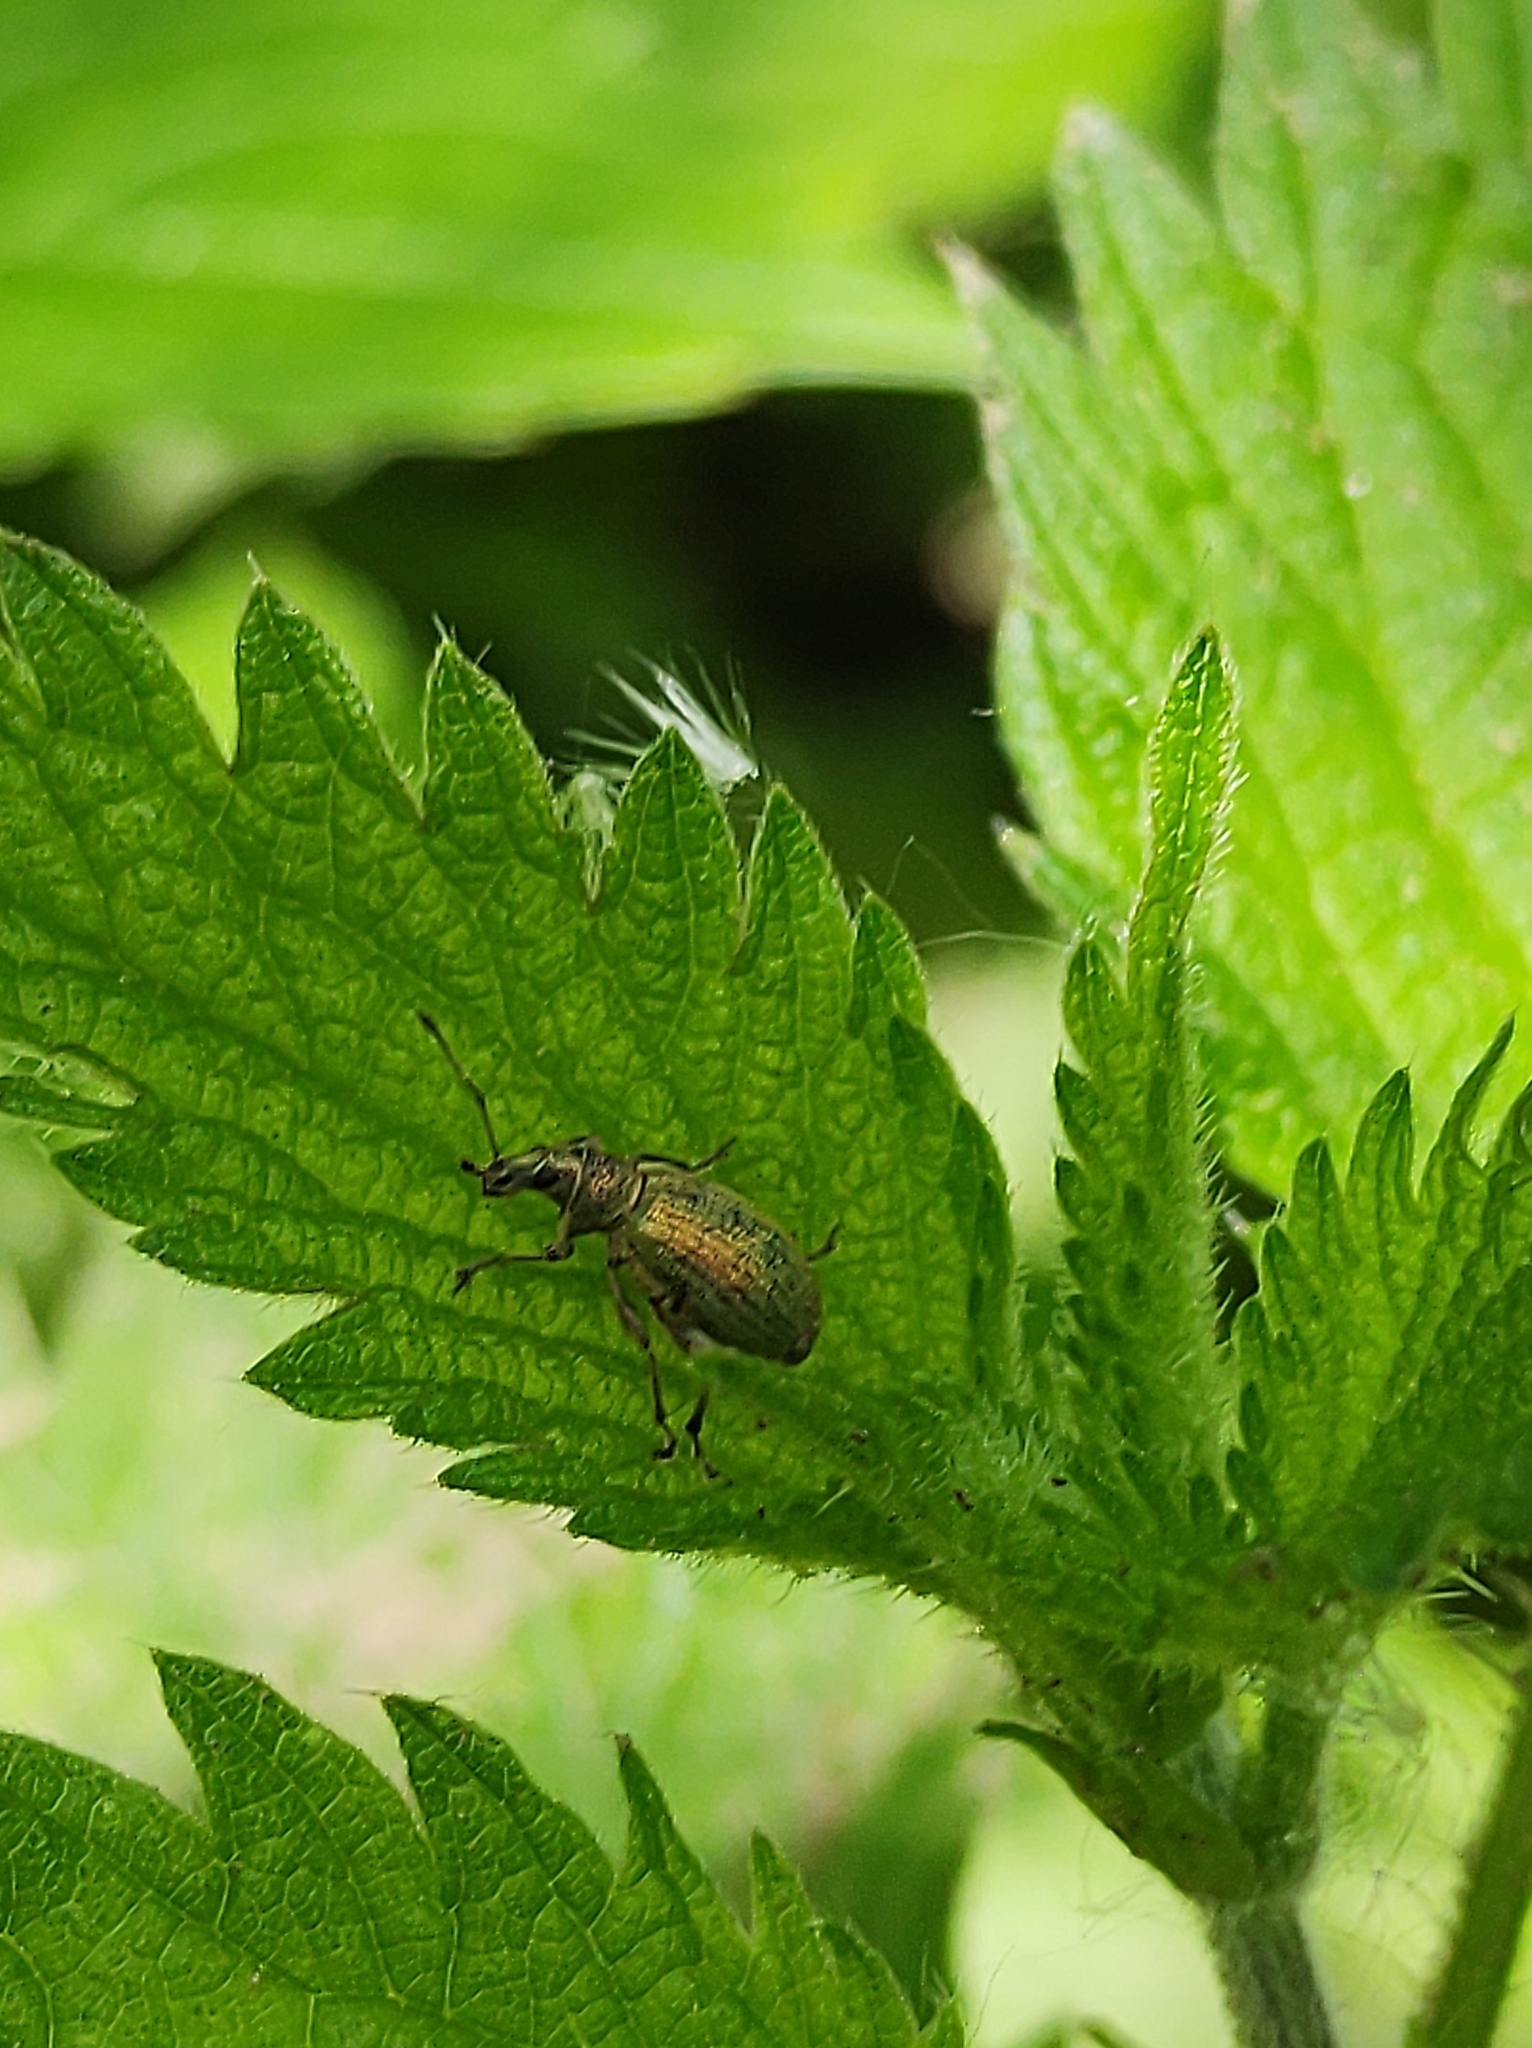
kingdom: Animalia
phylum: Arthropoda
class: Insecta
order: Coleoptera
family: Curculionidae
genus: Phyllobius
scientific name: Phyllobius pomaceus
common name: Green nettle weevil
